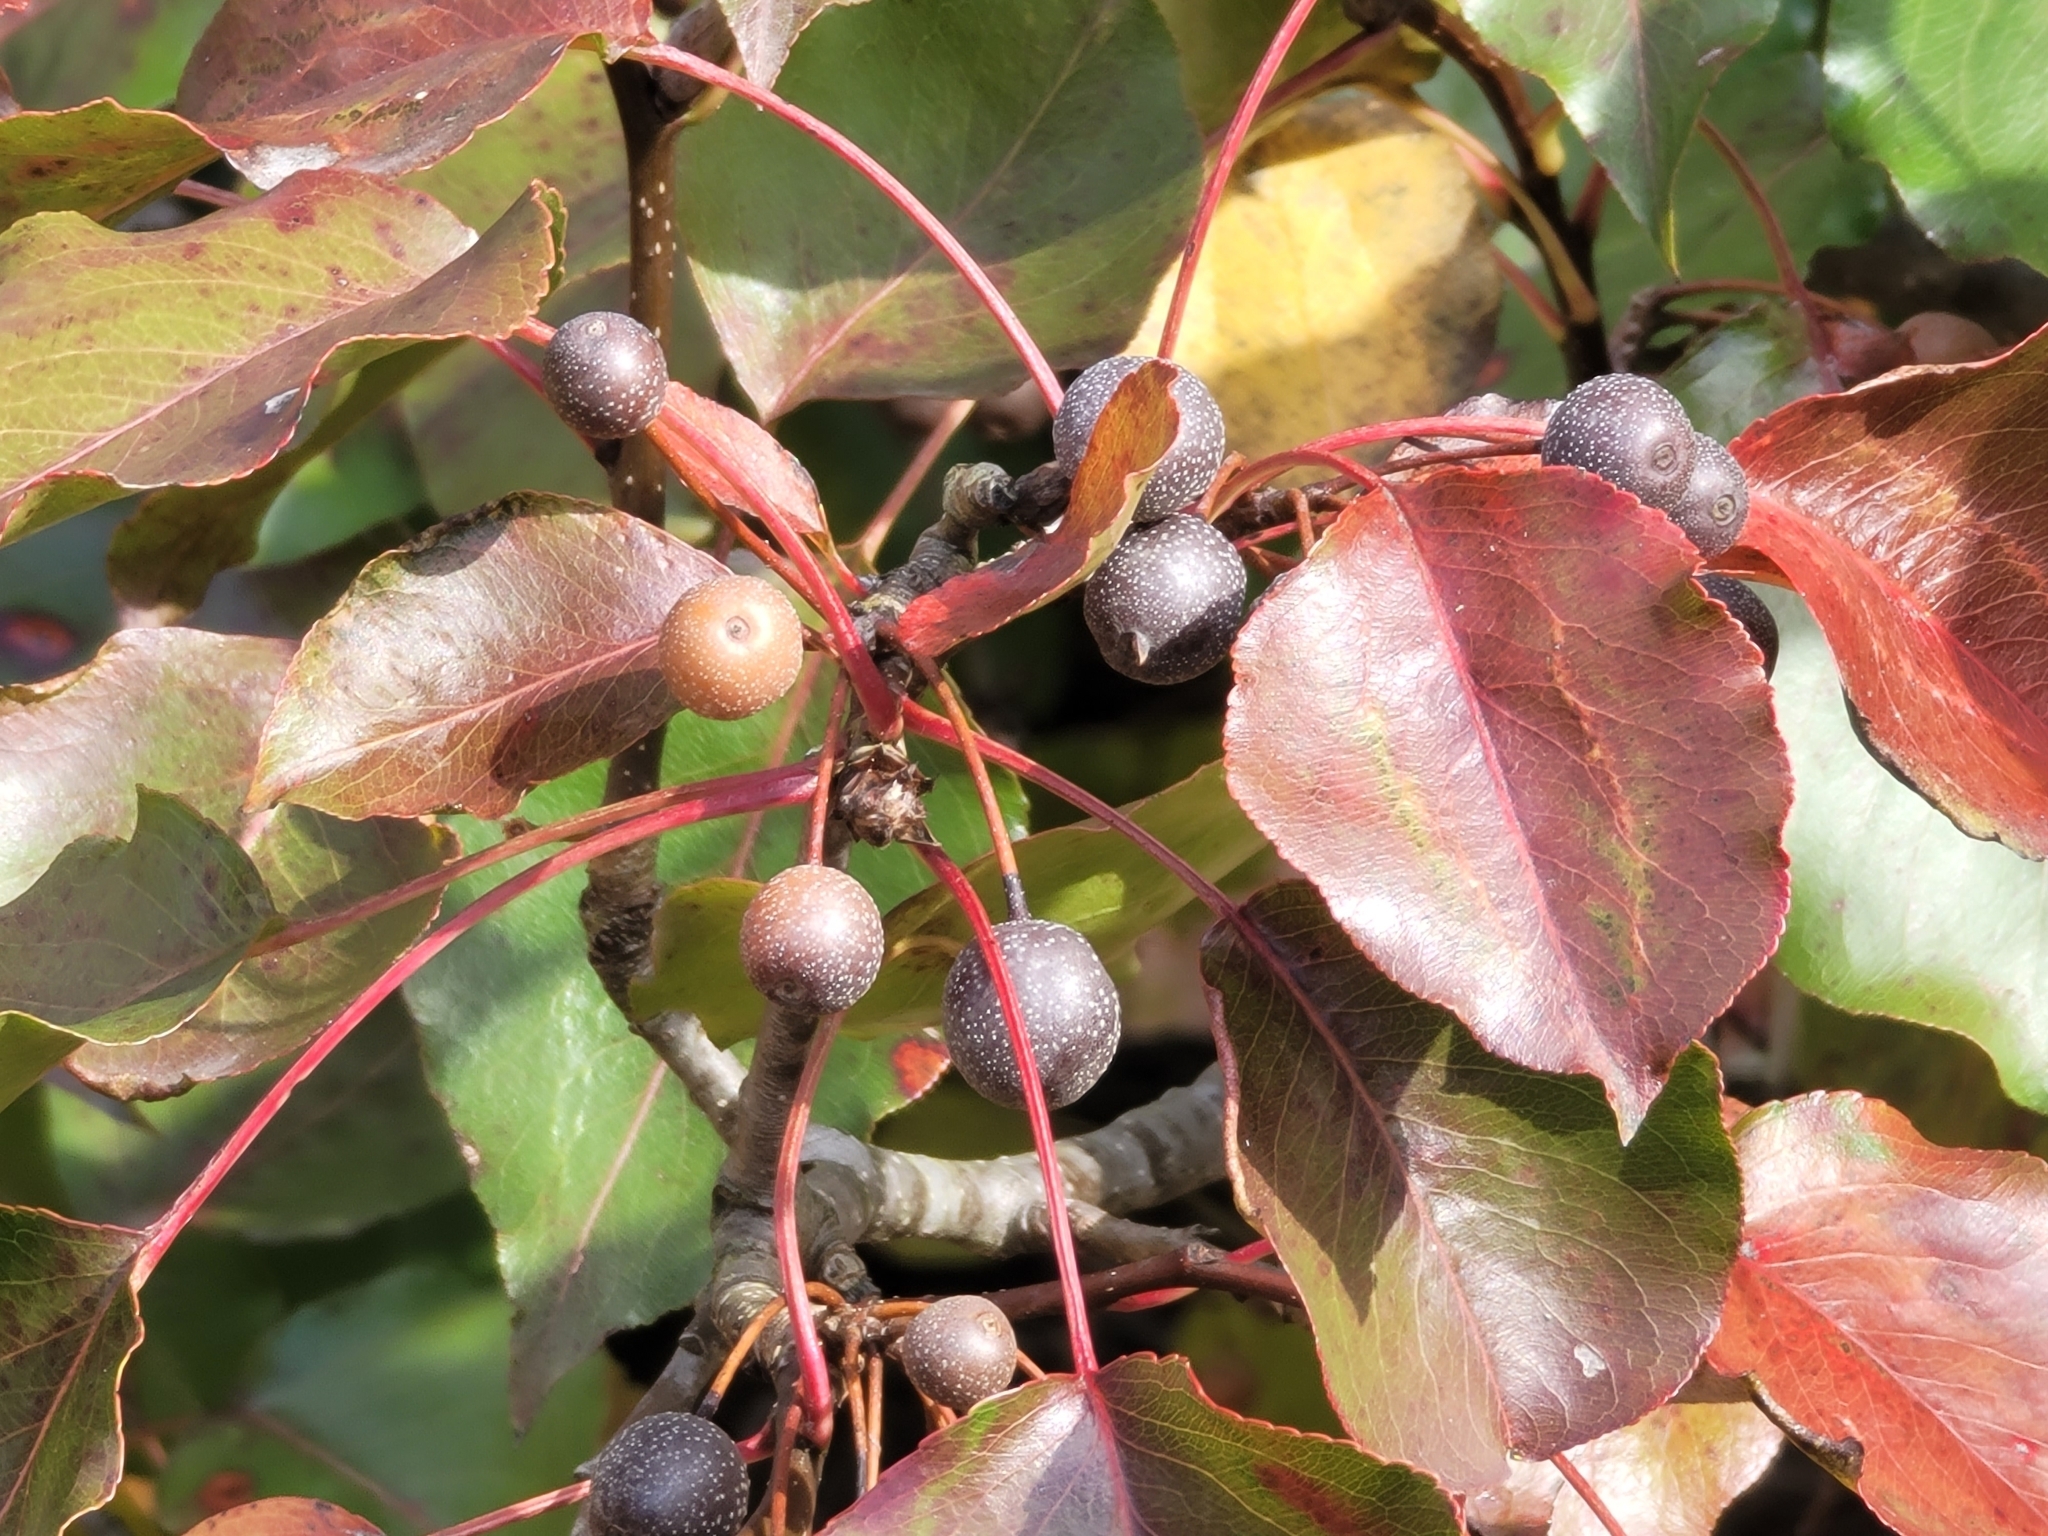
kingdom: Plantae
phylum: Tracheophyta
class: Magnoliopsida
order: Rosales
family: Rosaceae
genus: Pyrus
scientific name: Pyrus calleryana
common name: Callery pear
